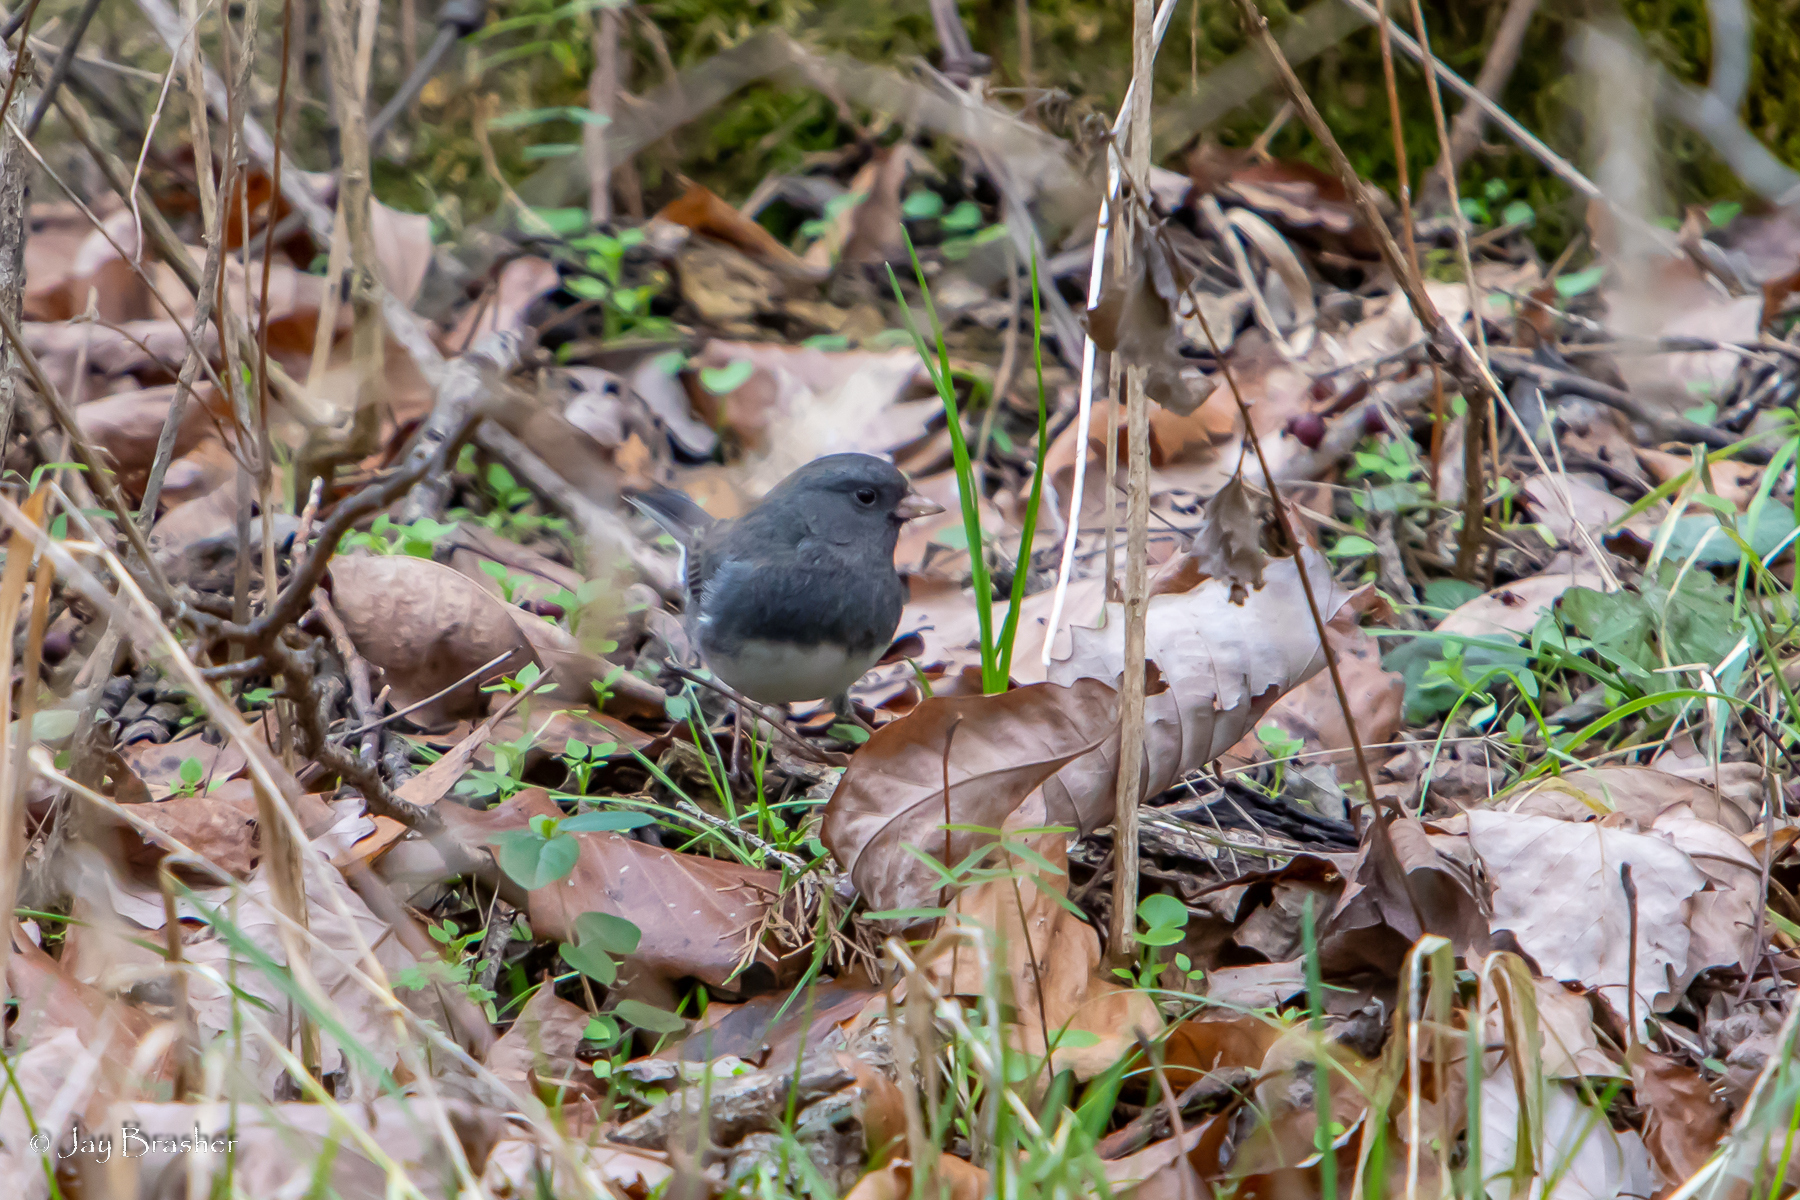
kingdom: Animalia
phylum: Chordata
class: Aves
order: Passeriformes
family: Passerellidae
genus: Junco
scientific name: Junco hyemalis
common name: Dark-eyed junco
